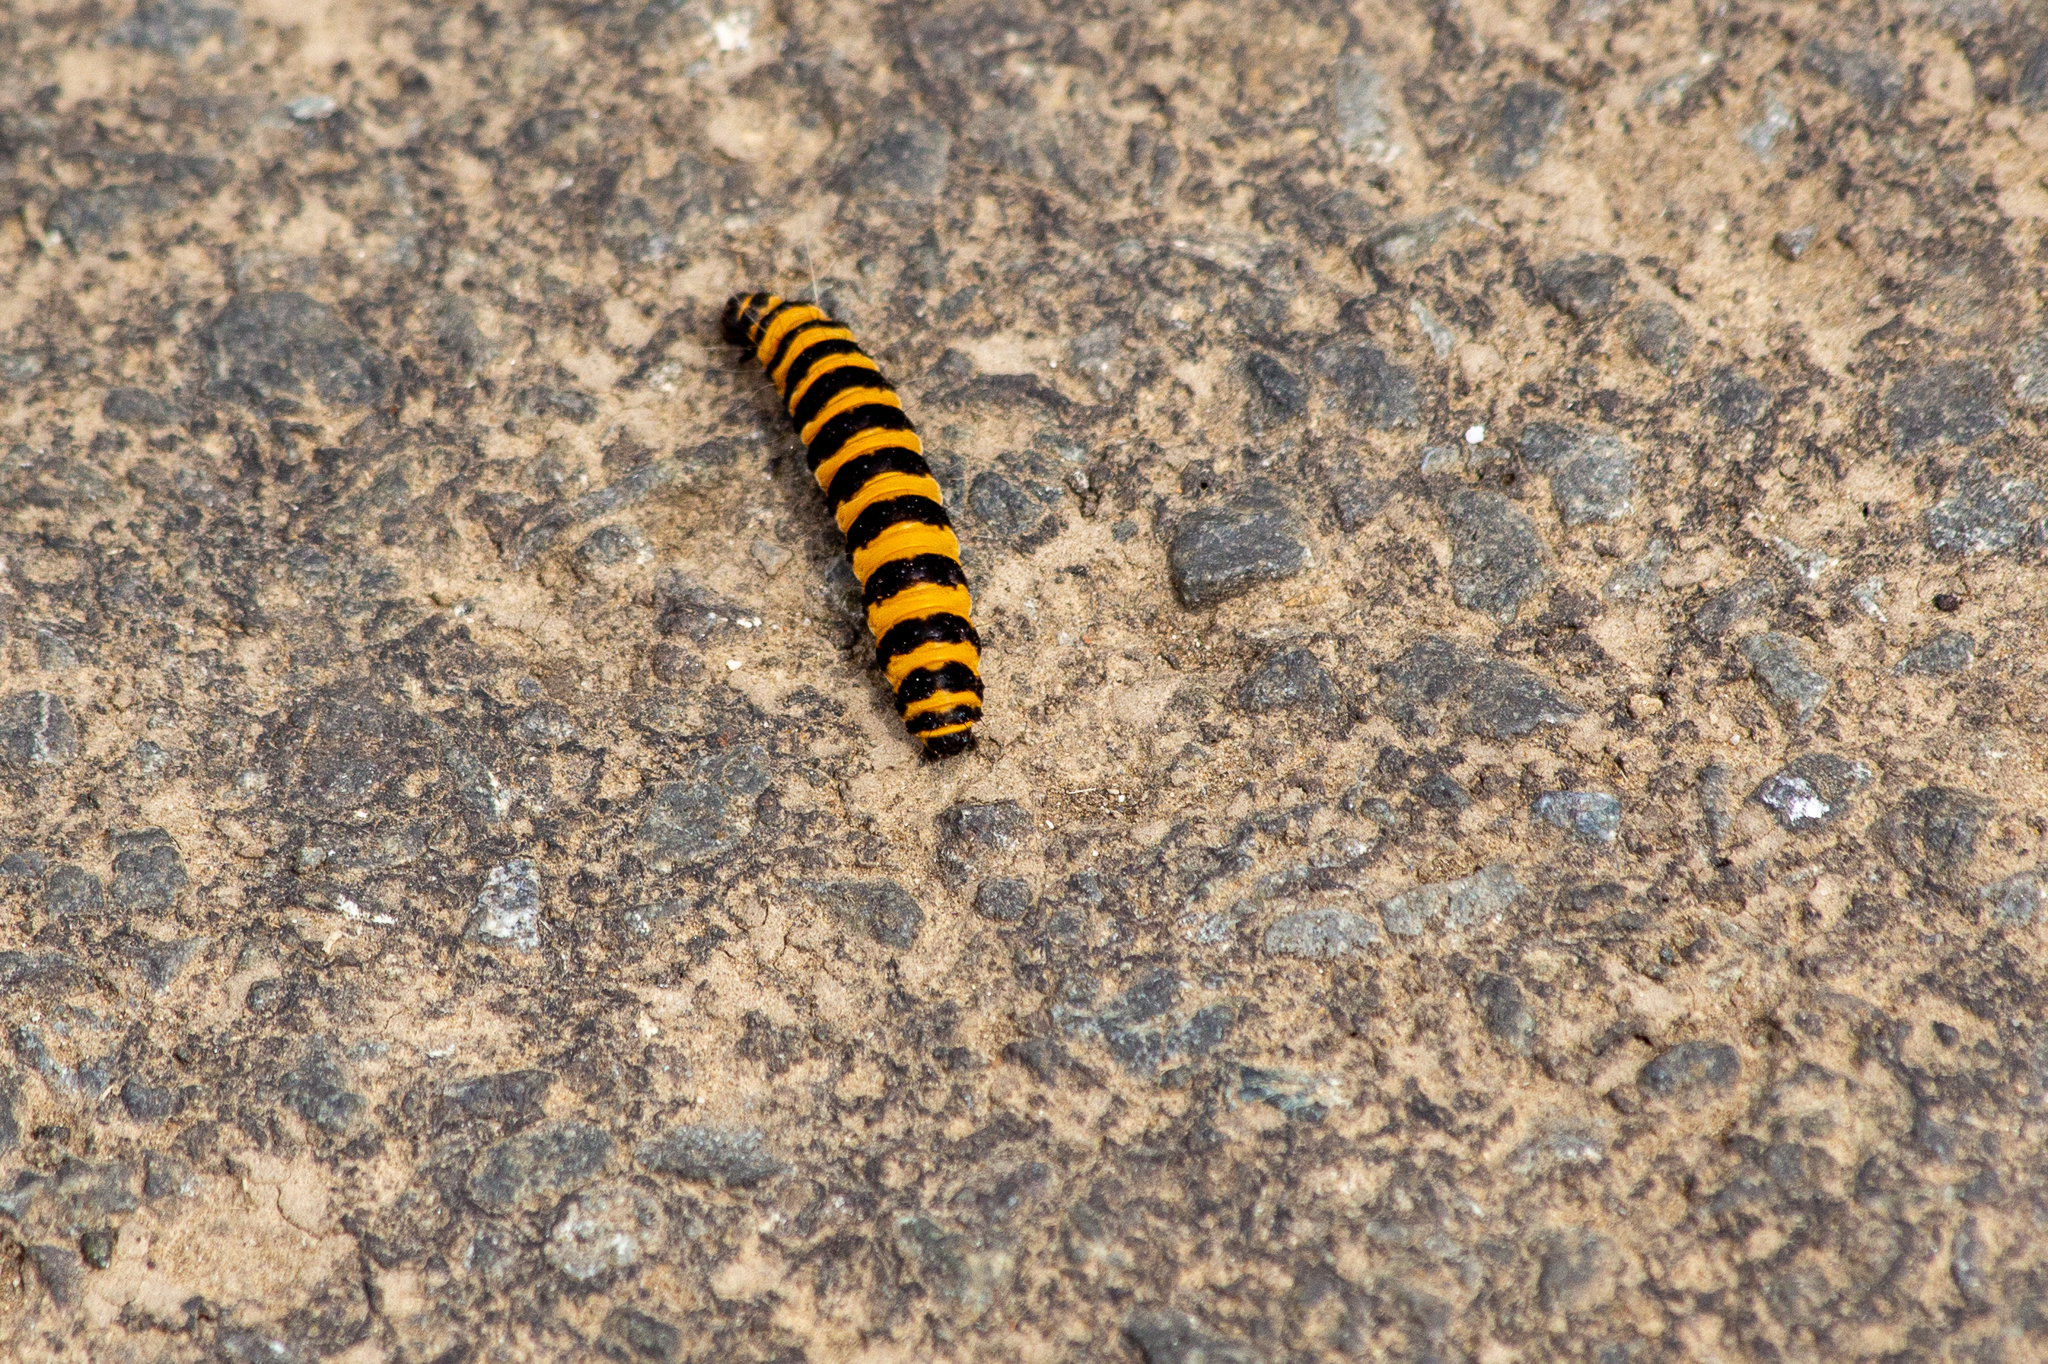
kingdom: Animalia
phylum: Arthropoda
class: Insecta
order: Lepidoptera
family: Erebidae
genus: Tyria
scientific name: Tyria jacobaeae
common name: Cinnabar
